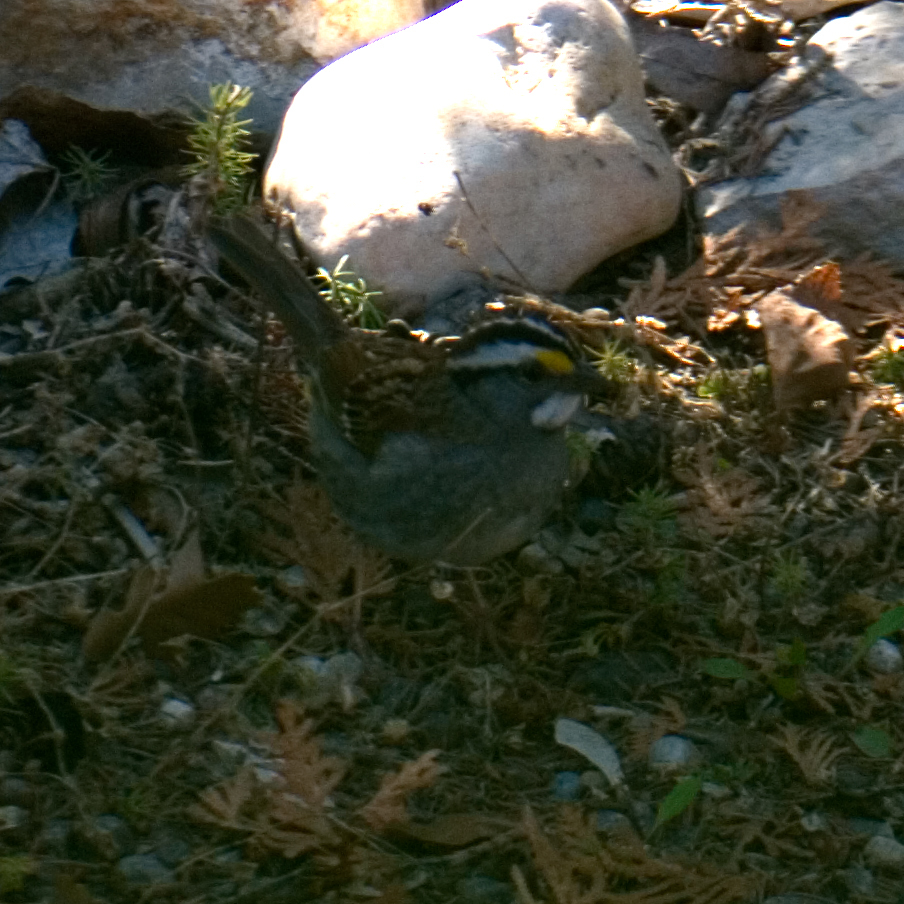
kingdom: Animalia
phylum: Chordata
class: Aves
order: Passeriformes
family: Passerellidae
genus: Zonotrichia
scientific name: Zonotrichia albicollis
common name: White-throated sparrow
